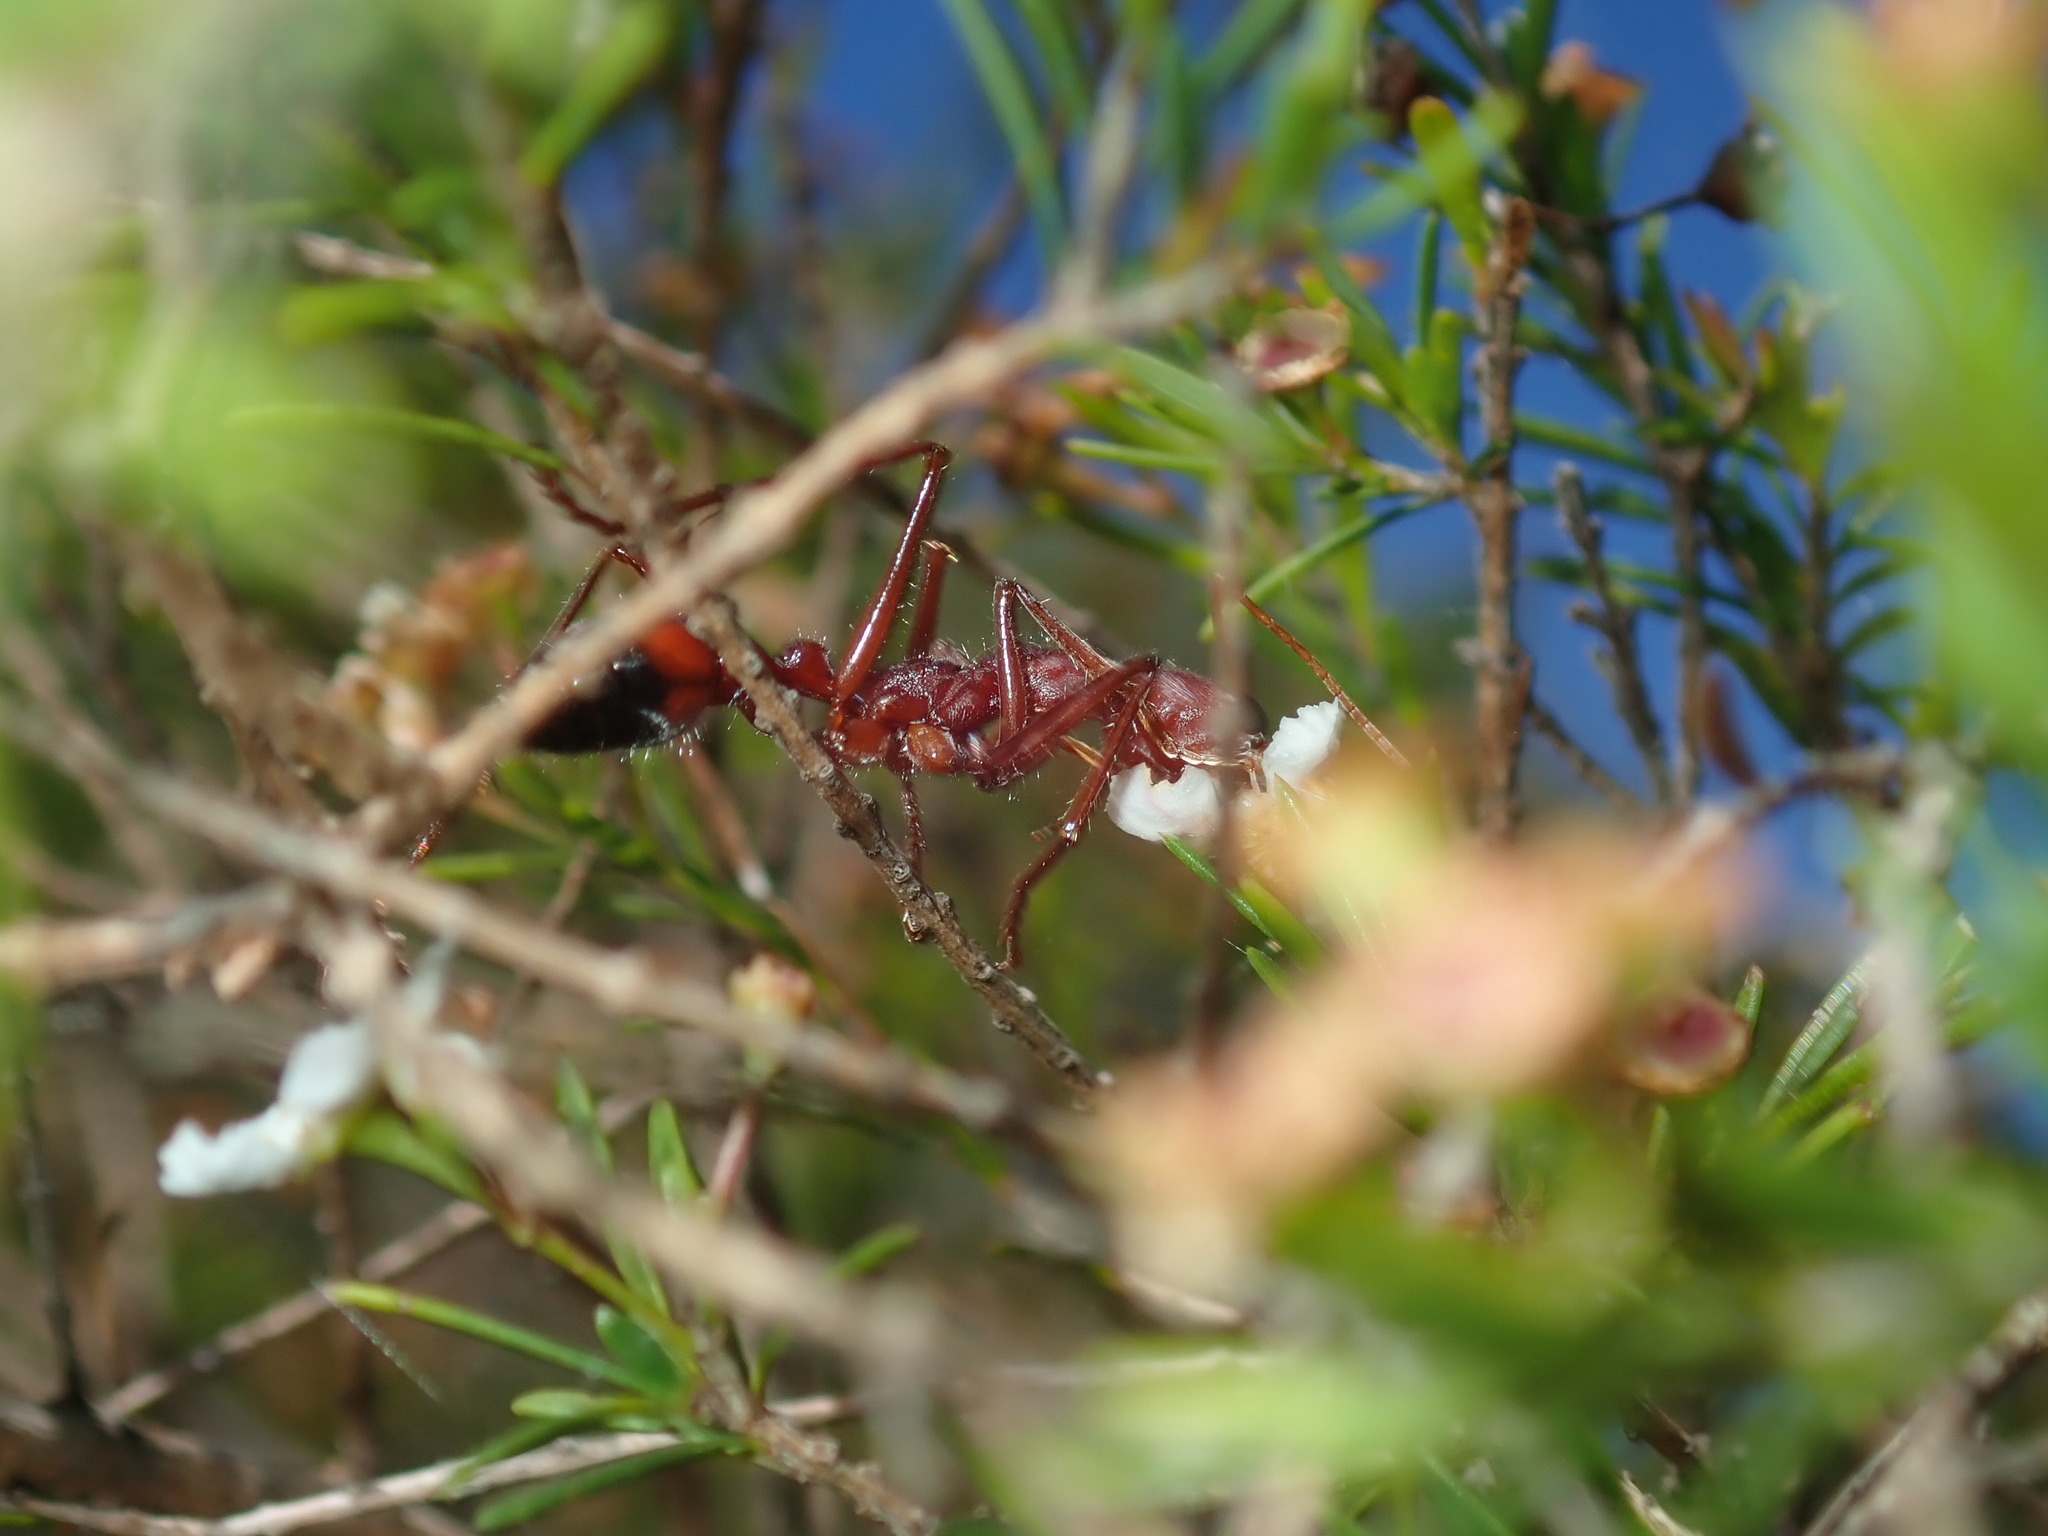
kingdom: Animalia
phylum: Arthropoda
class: Insecta
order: Hymenoptera
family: Formicidae
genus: Myrmecia
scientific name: Myrmecia gulosa
